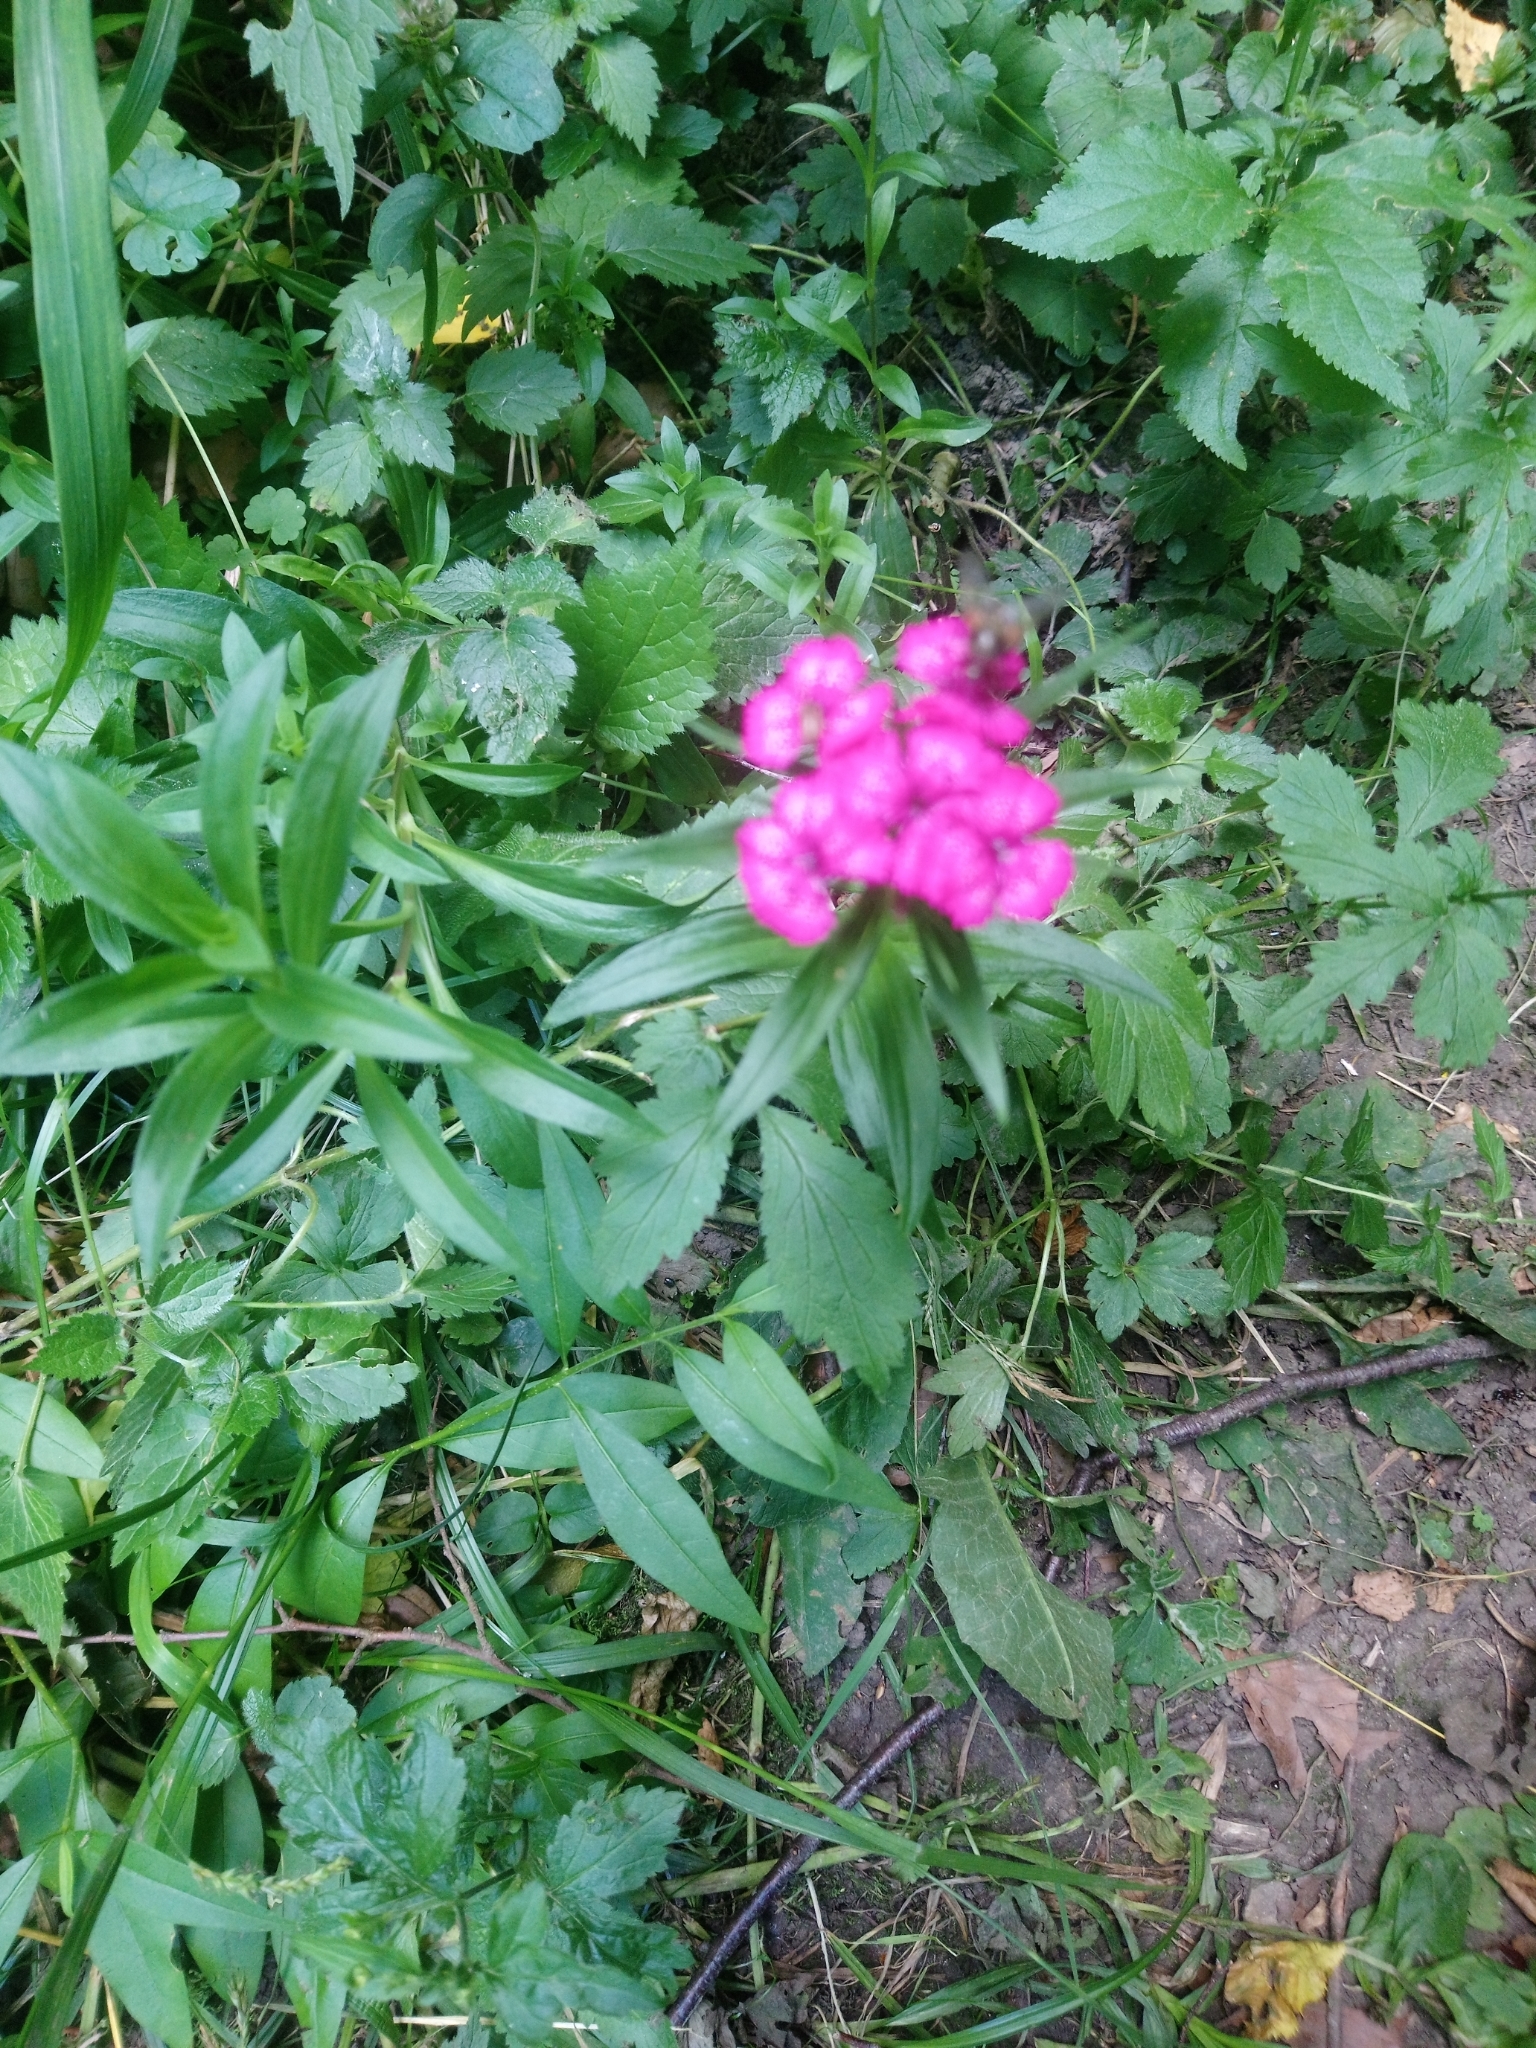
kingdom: Plantae
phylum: Tracheophyta
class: Magnoliopsida
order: Caryophyllales
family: Caryophyllaceae
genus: Dianthus
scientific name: Dianthus barbatus
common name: Sweet-william
